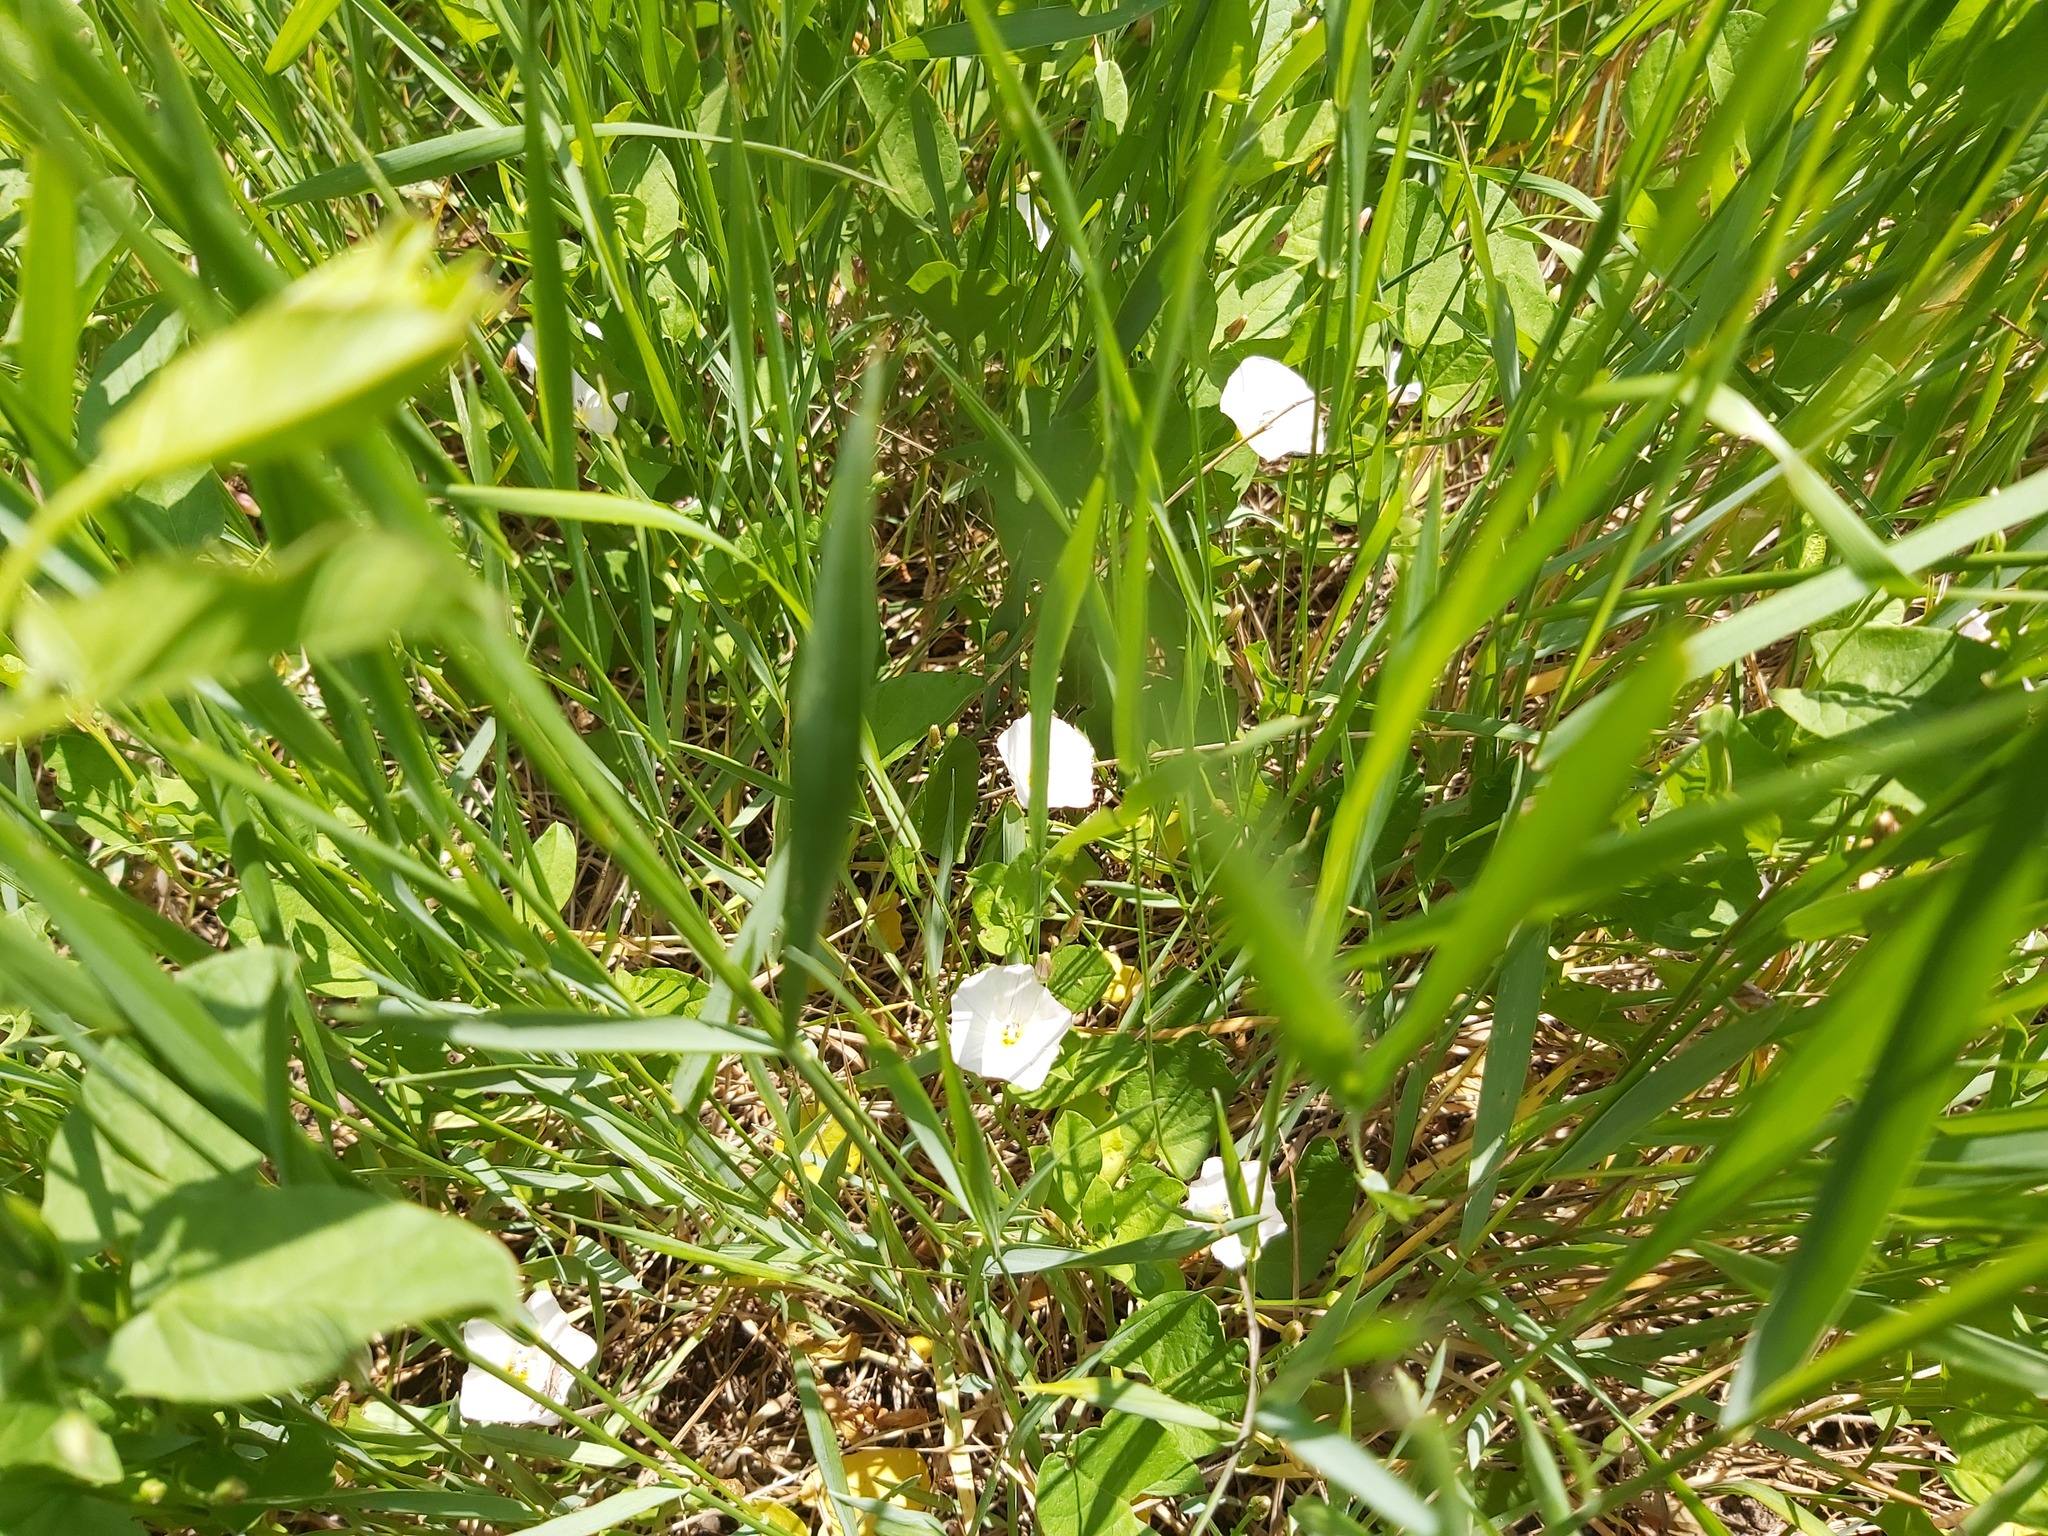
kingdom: Plantae
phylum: Tracheophyta
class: Magnoliopsida
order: Solanales
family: Convolvulaceae
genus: Convolvulus
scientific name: Convolvulus arvensis
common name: Field bindweed
